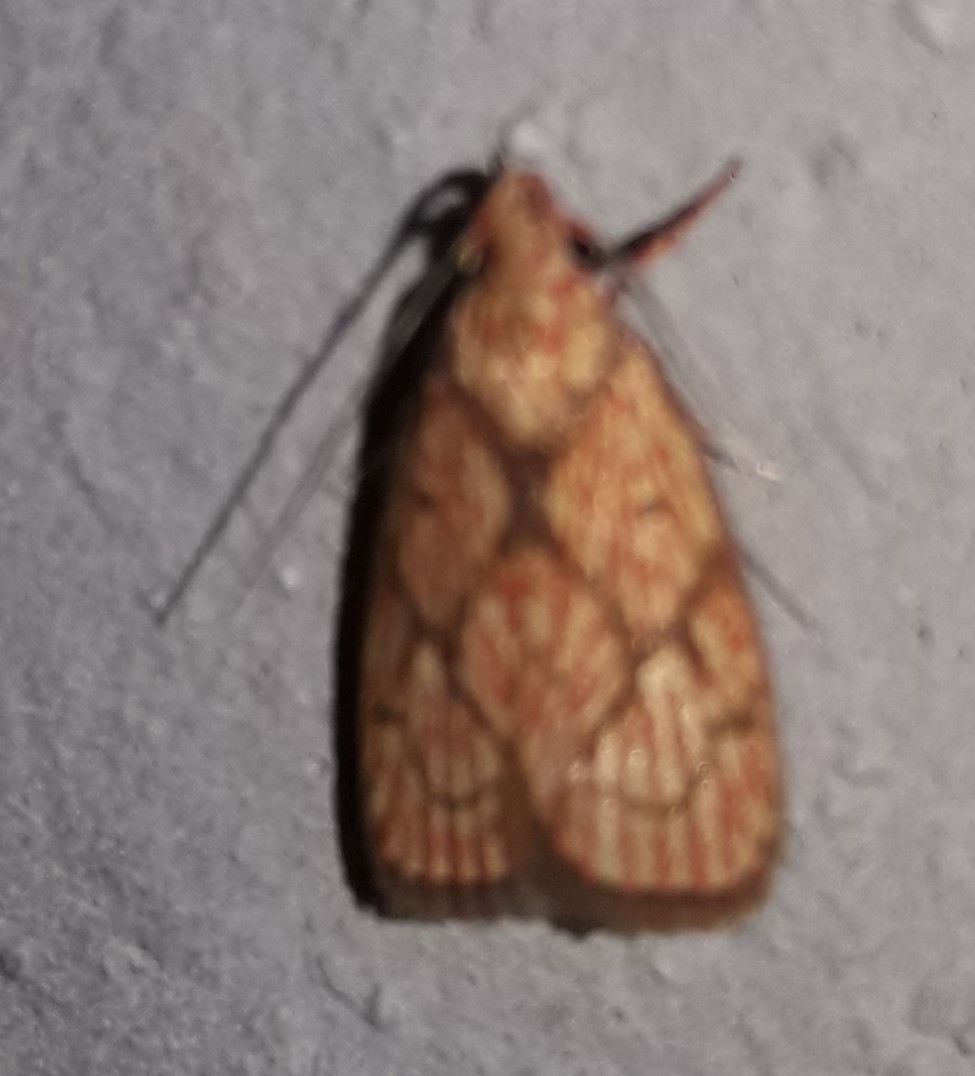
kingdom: Animalia
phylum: Arthropoda
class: Insecta
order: Lepidoptera
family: Peleopodidae
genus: Machimia
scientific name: Machimia
